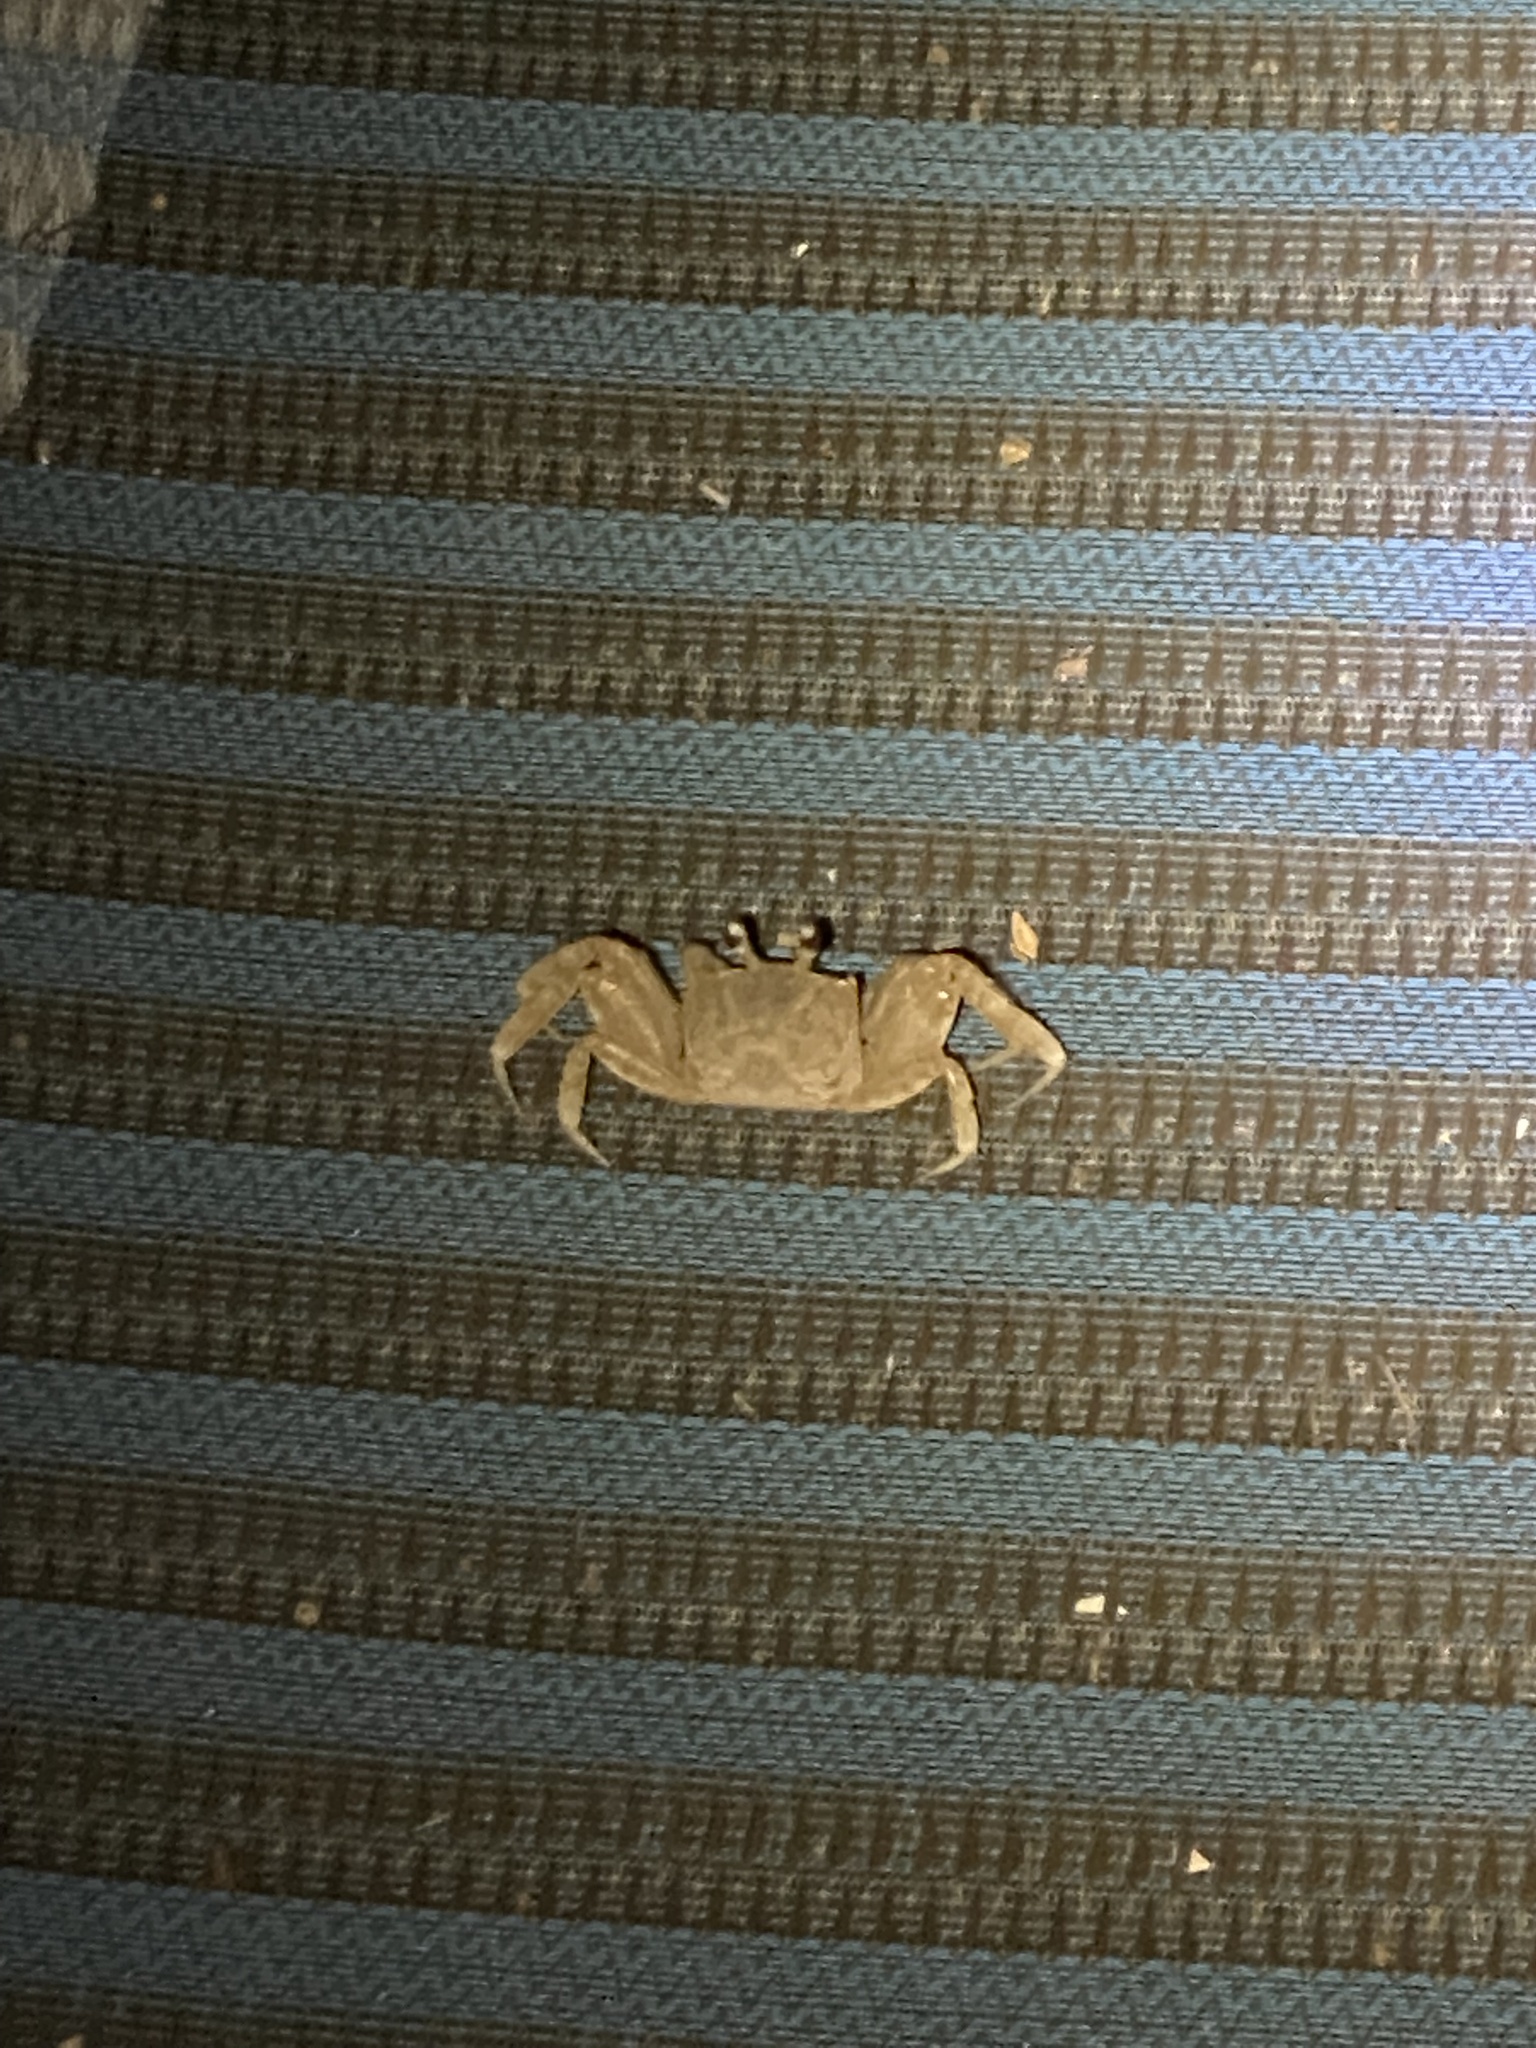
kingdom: Animalia
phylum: Arthropoda
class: Malacostraca
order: Decapoda
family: Ocypodidae
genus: Ocypode
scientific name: Ocypode quadrata
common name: Ghost crab
